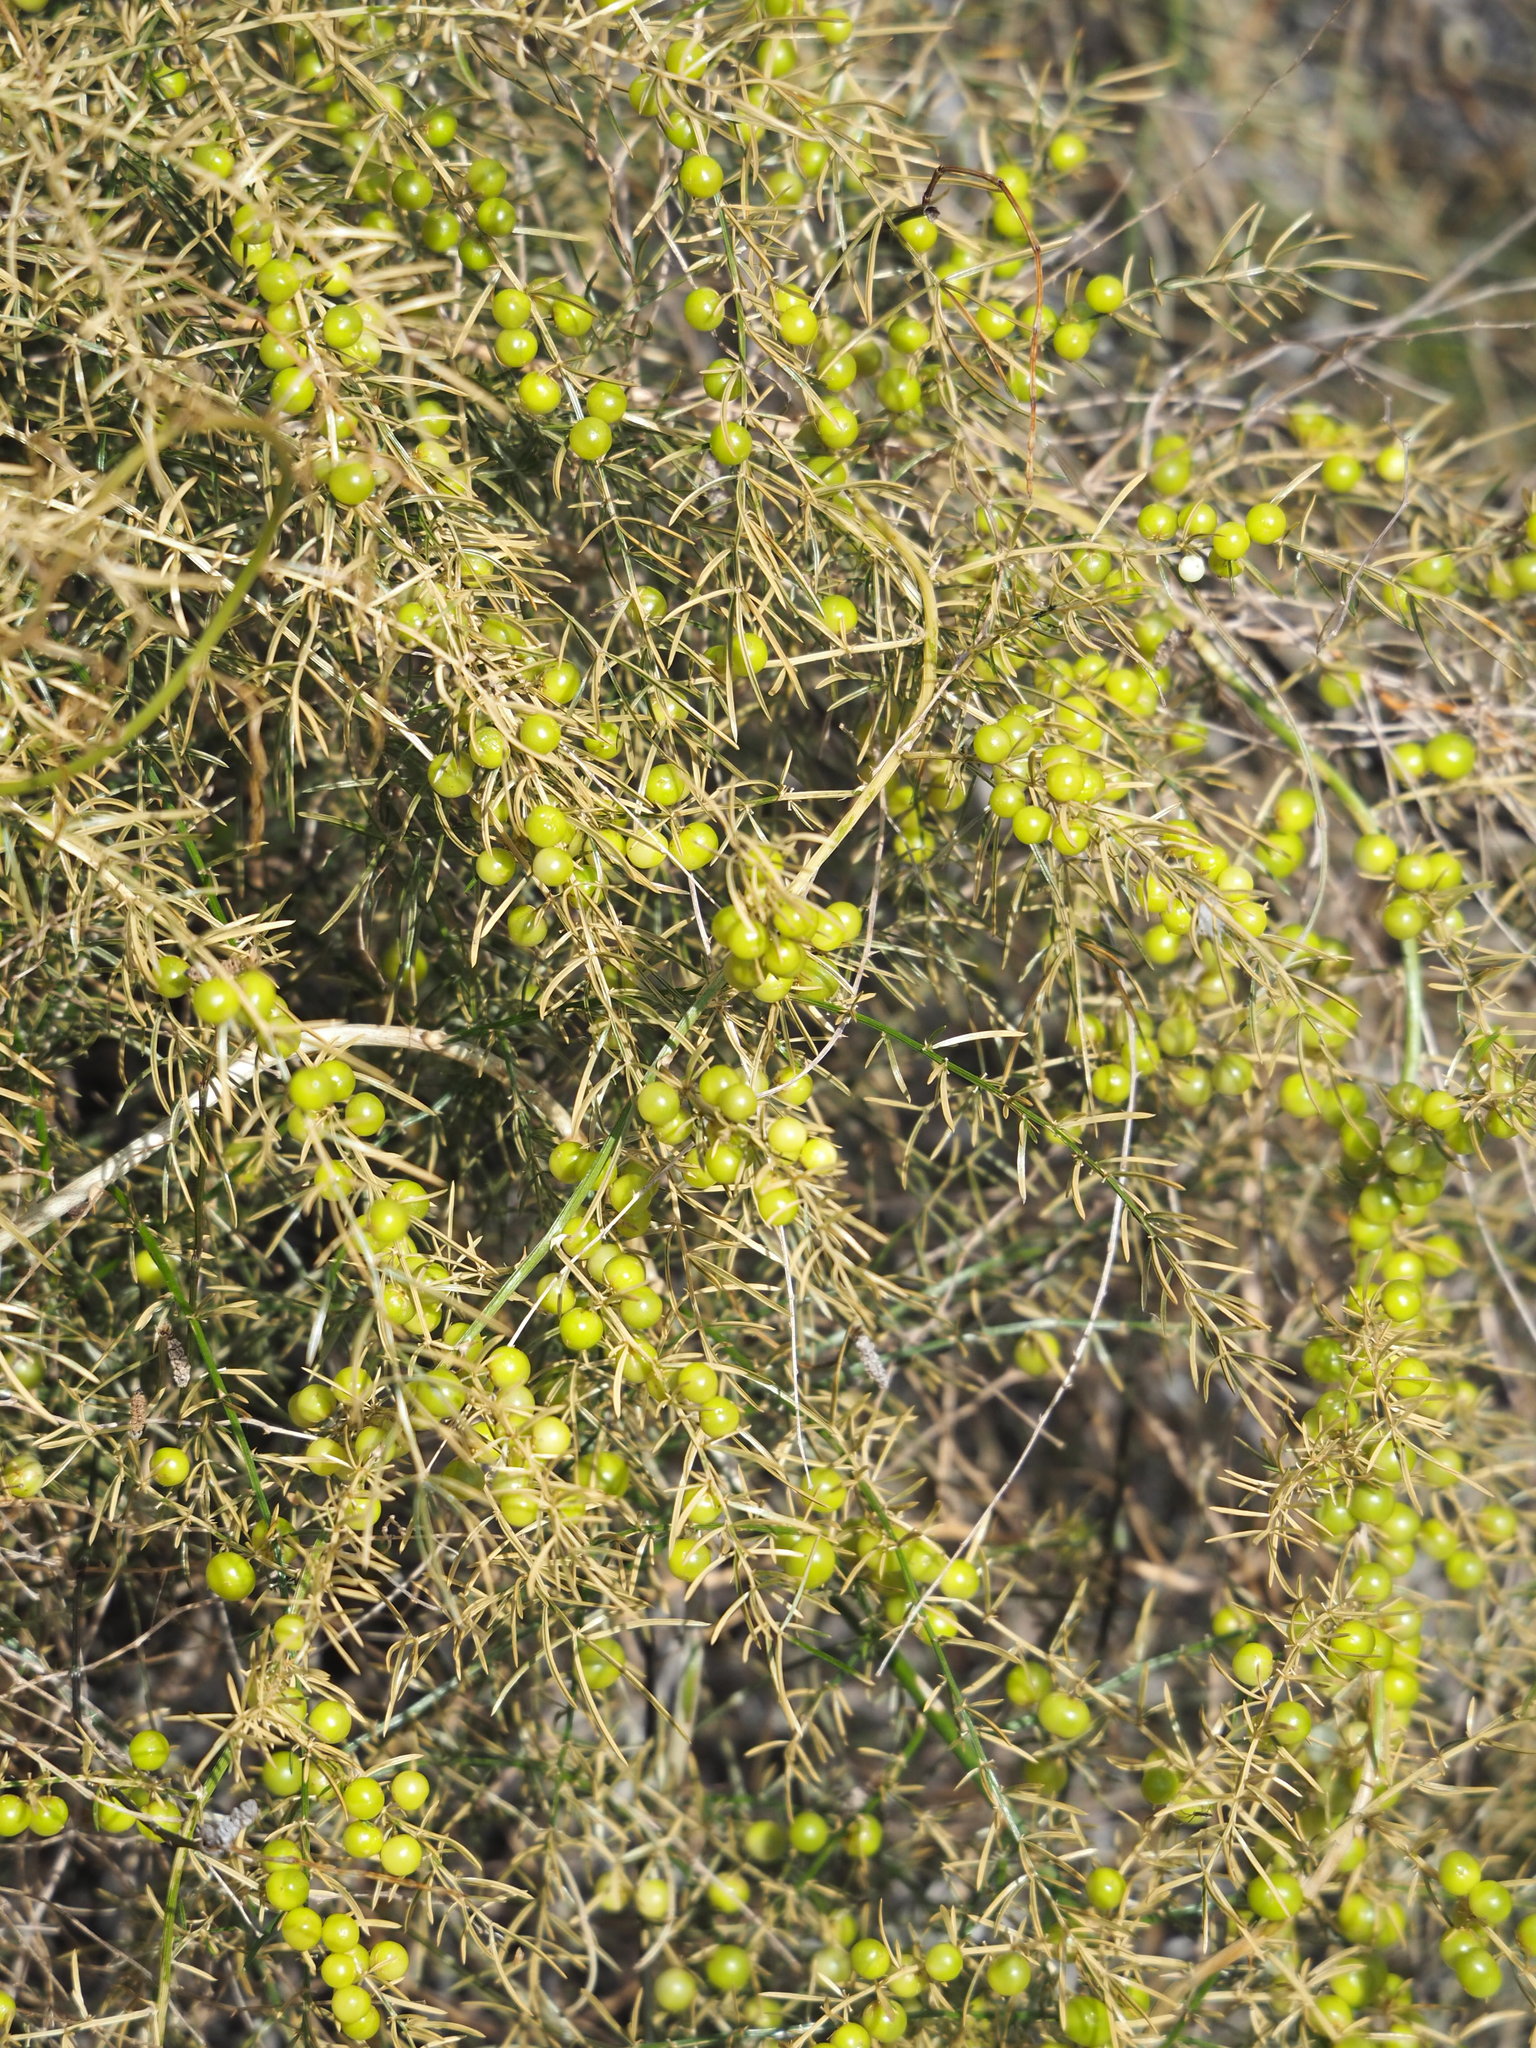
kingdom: Plantae
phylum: Tracheophyta
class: Liliopsida
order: Asparagales
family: Asparagaceae
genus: Asparagus
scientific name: Asparagus cochinchinensis
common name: Chinese asparagus
